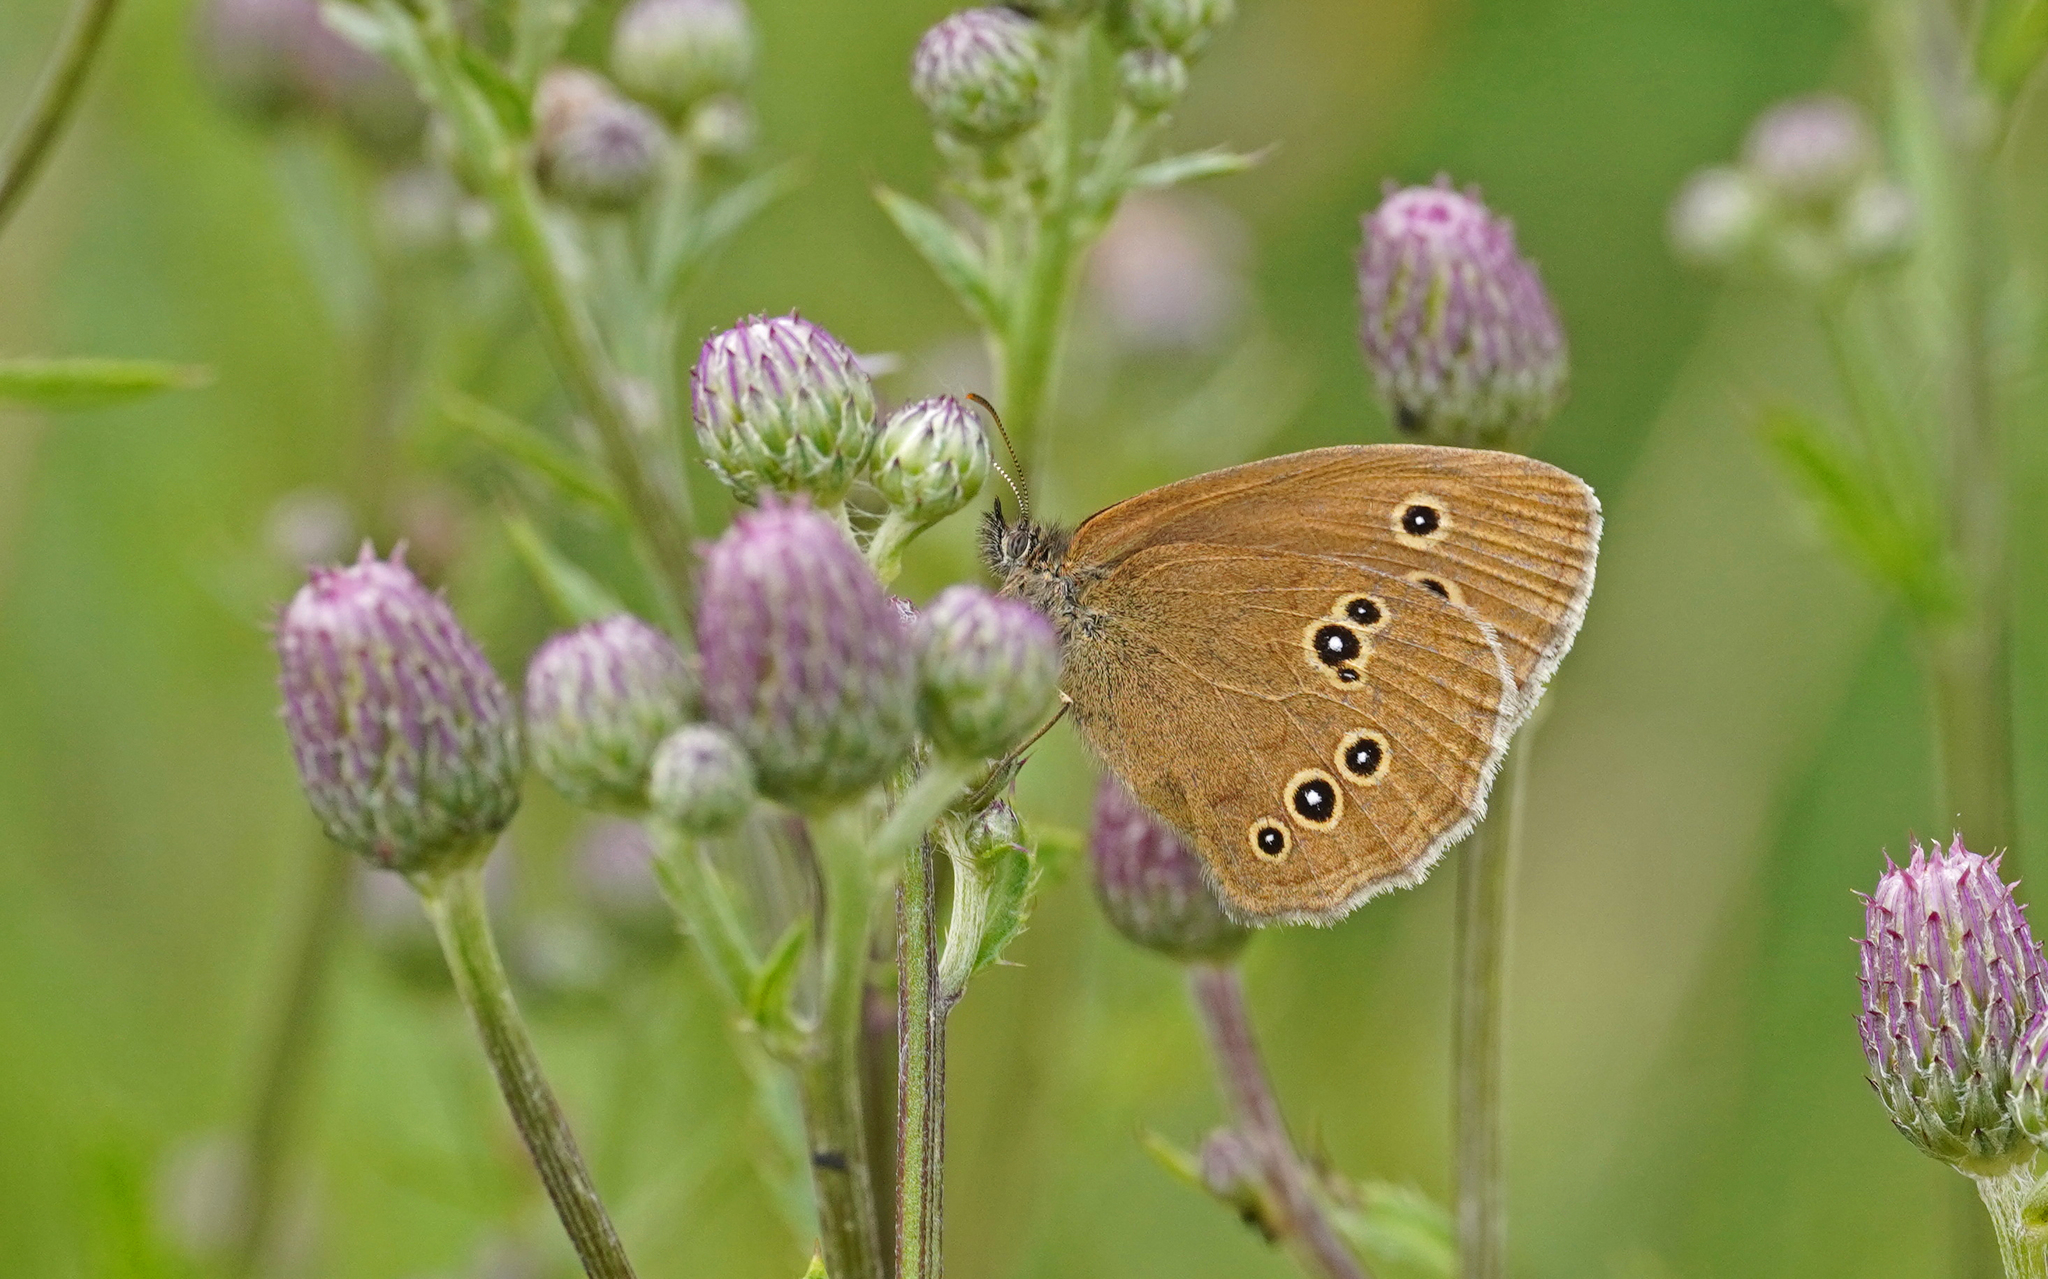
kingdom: Animalia
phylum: Arthropoda
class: Insecta
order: Lepidoptera
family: Nymphalidae
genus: Aphantopus
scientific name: Aphantopus hyperantus
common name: Ringlet
